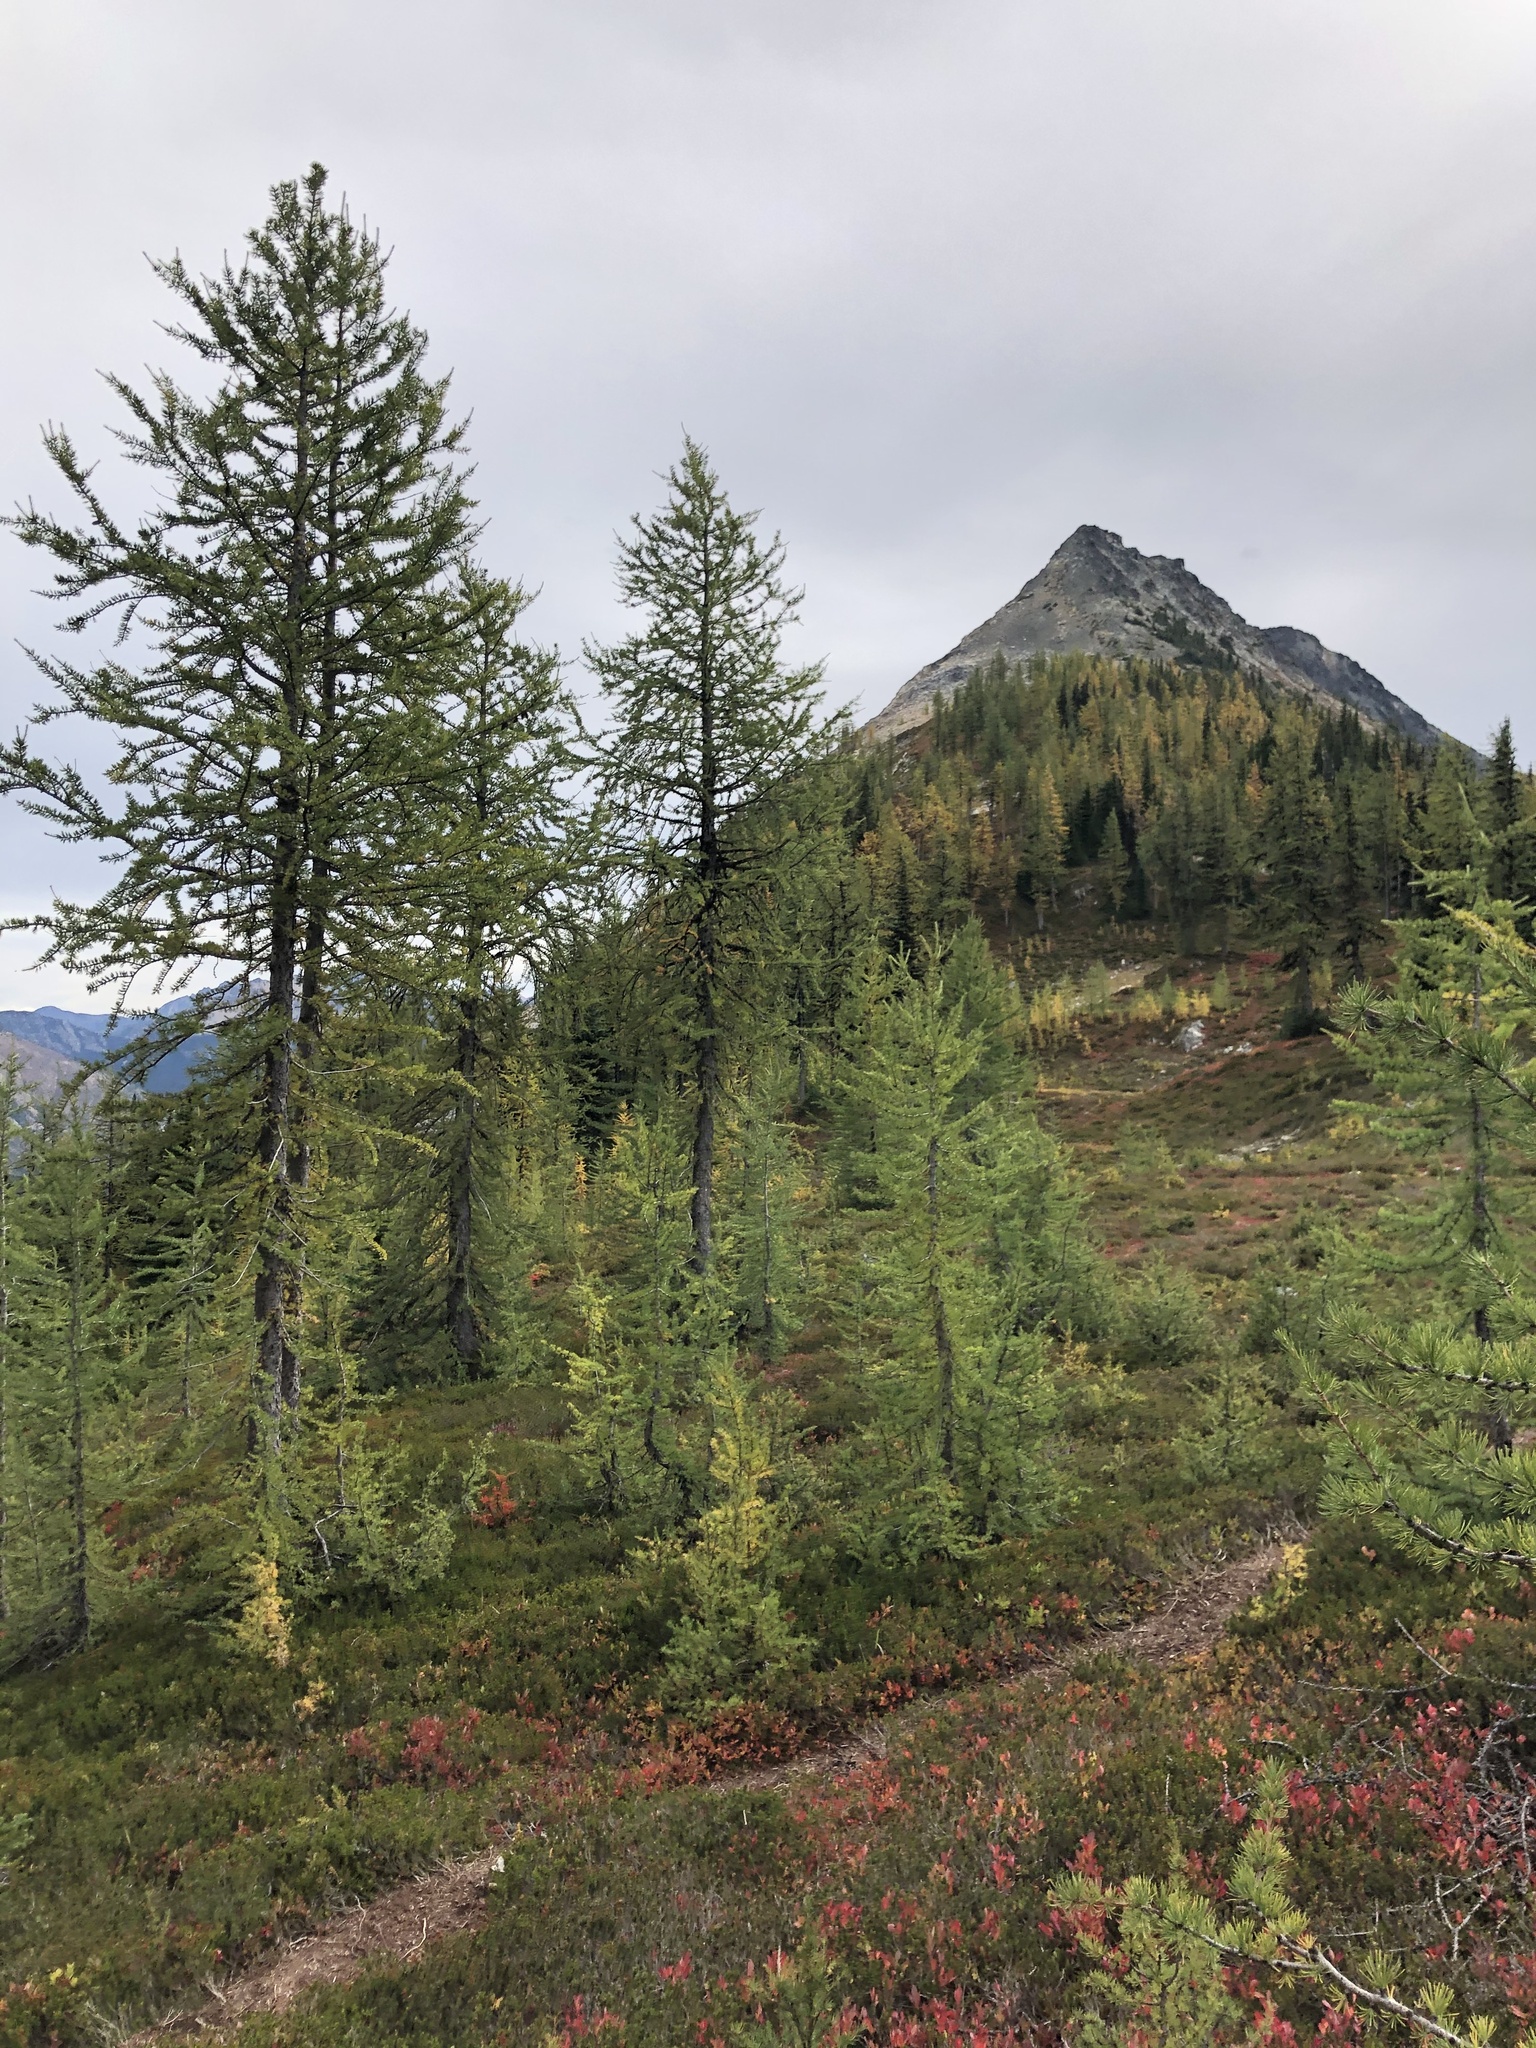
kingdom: Plantae
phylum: Tracheophyta
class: Pinopsida
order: Pinales
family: Pinaceae
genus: Larix
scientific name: Larix lyallii
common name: Alpine larch
